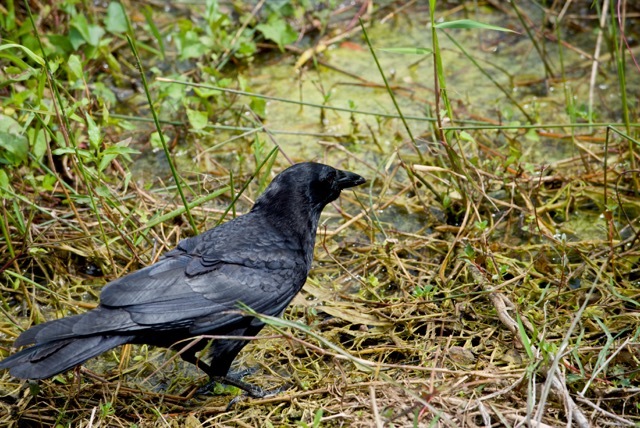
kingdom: Animalia
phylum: Chordata
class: Aves
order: Passeriformes
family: Corvidae
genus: Corvus
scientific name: Corvus brachyrhynchos
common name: American crow
